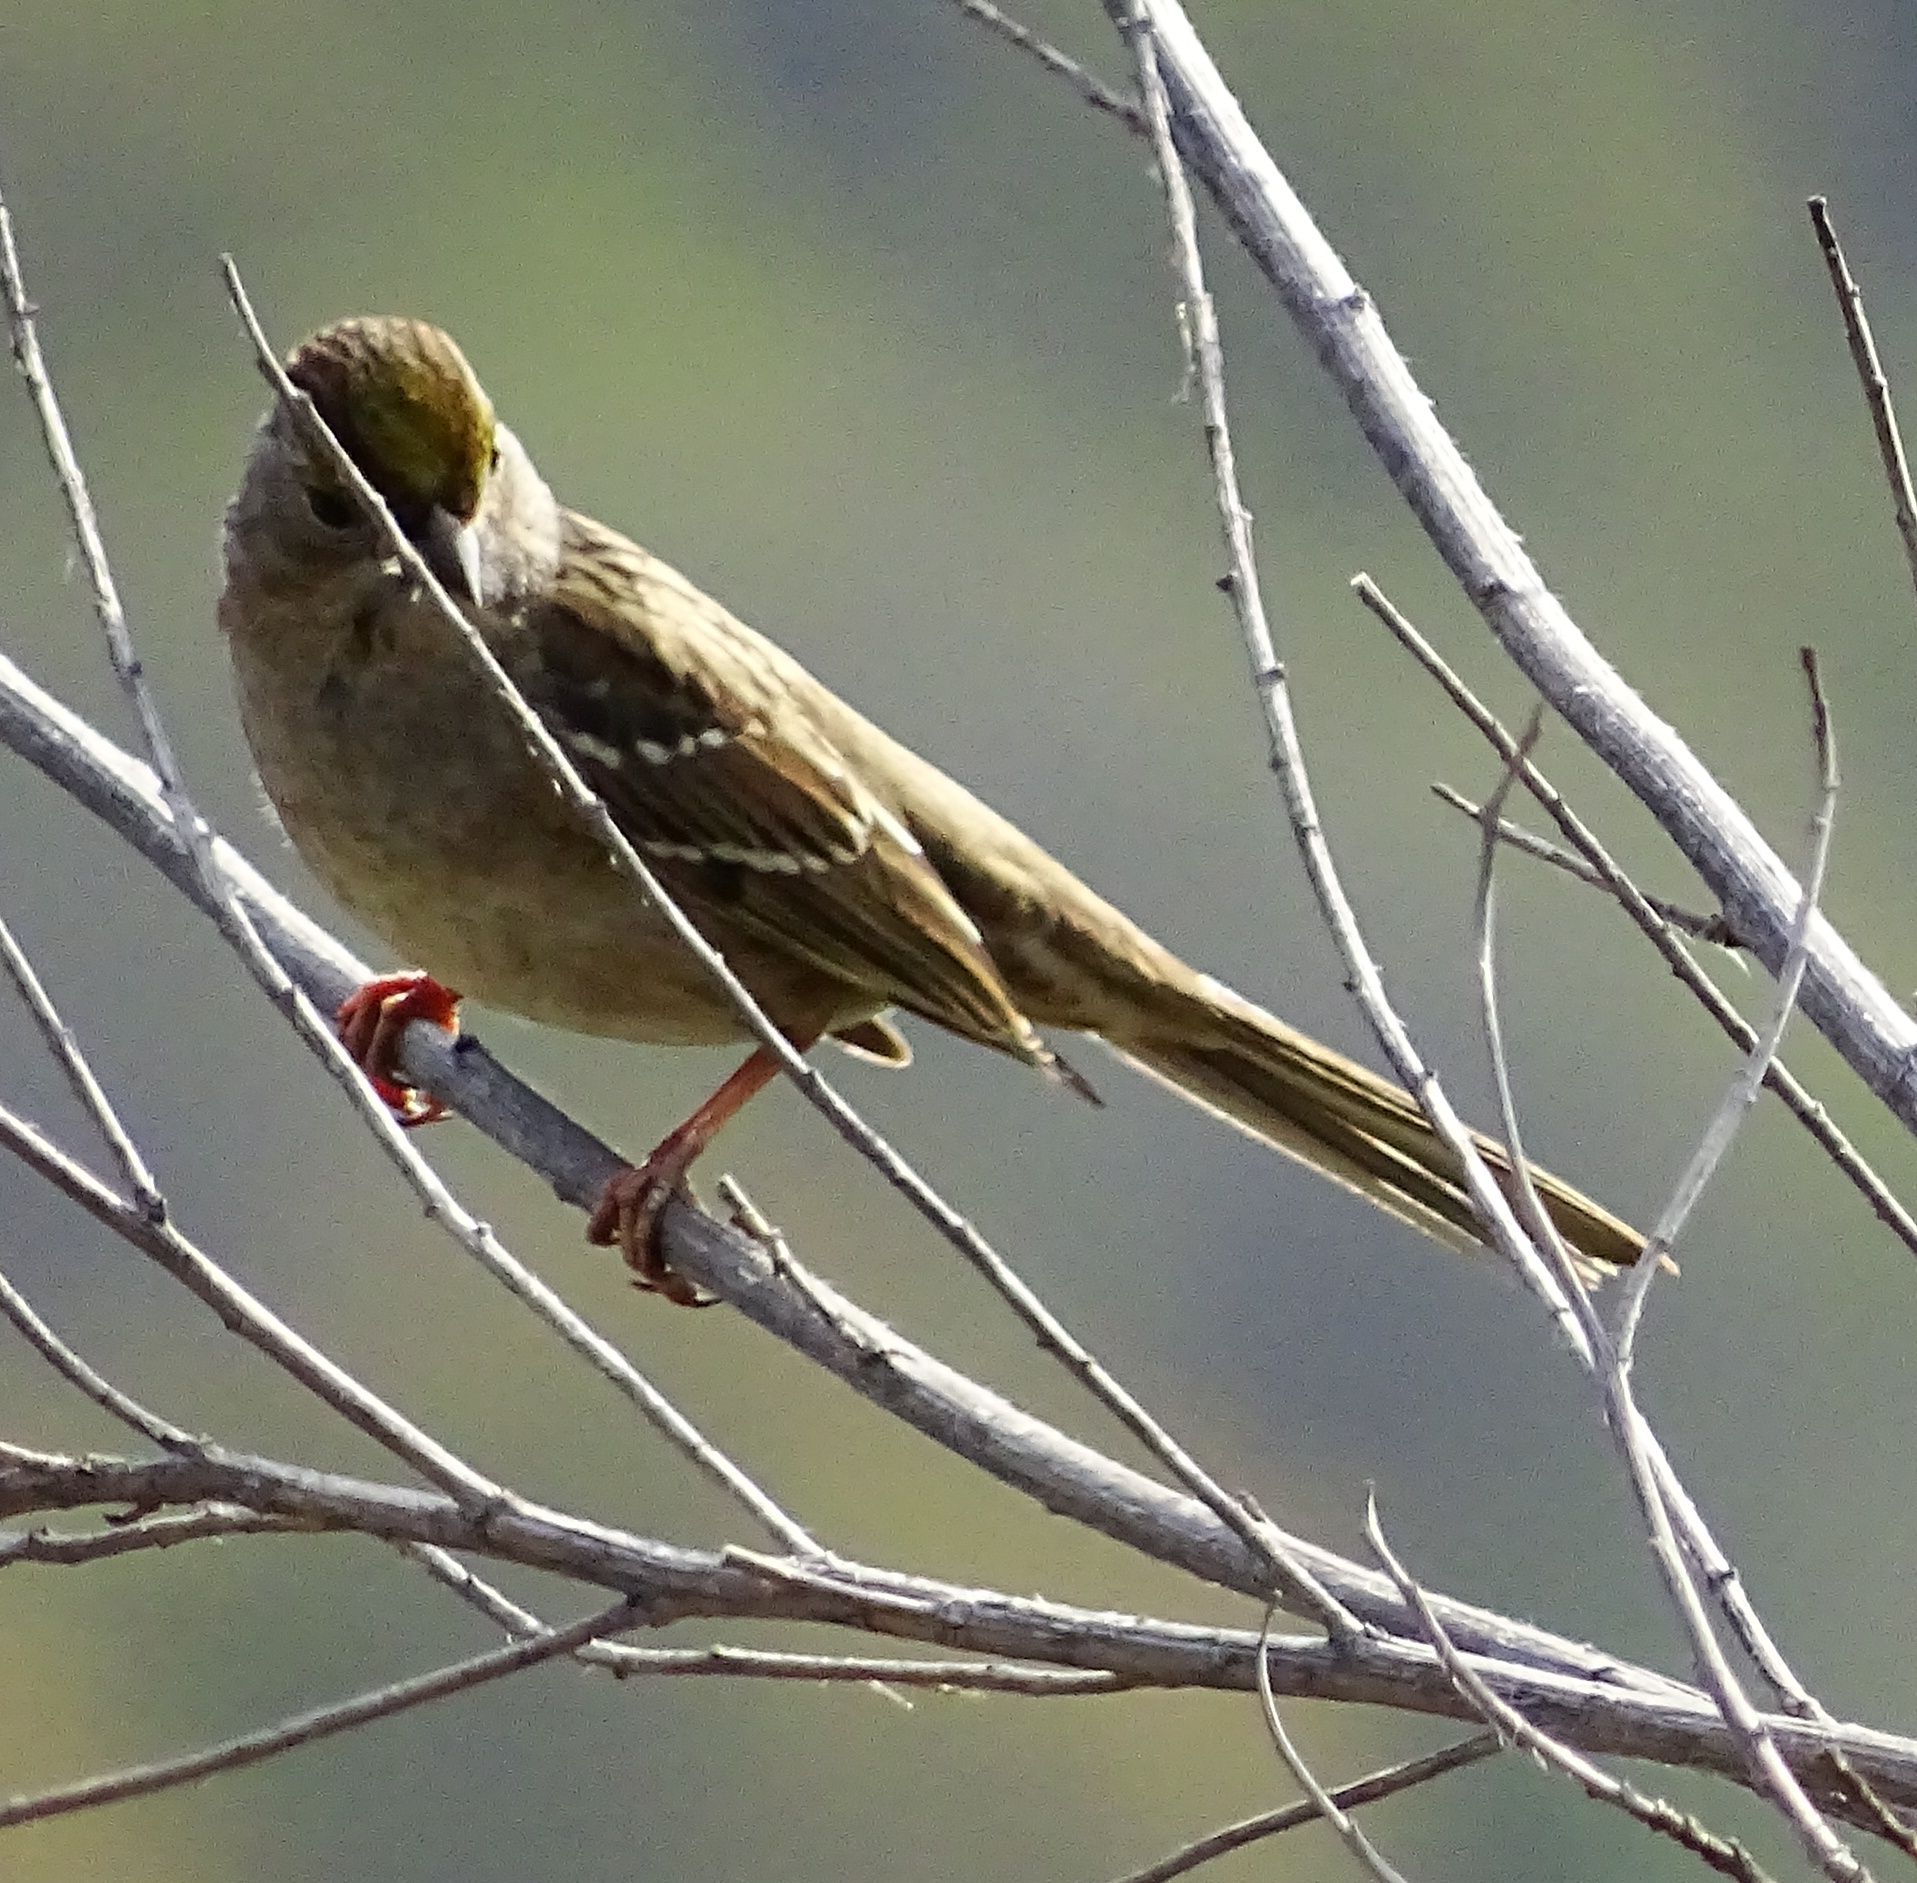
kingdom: Animalia
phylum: Chordata
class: Aves
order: Passeriformes
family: Passerellidae
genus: Zonotrichia
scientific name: Zonotrichia atricapilla
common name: Golden-crowned sparrow
